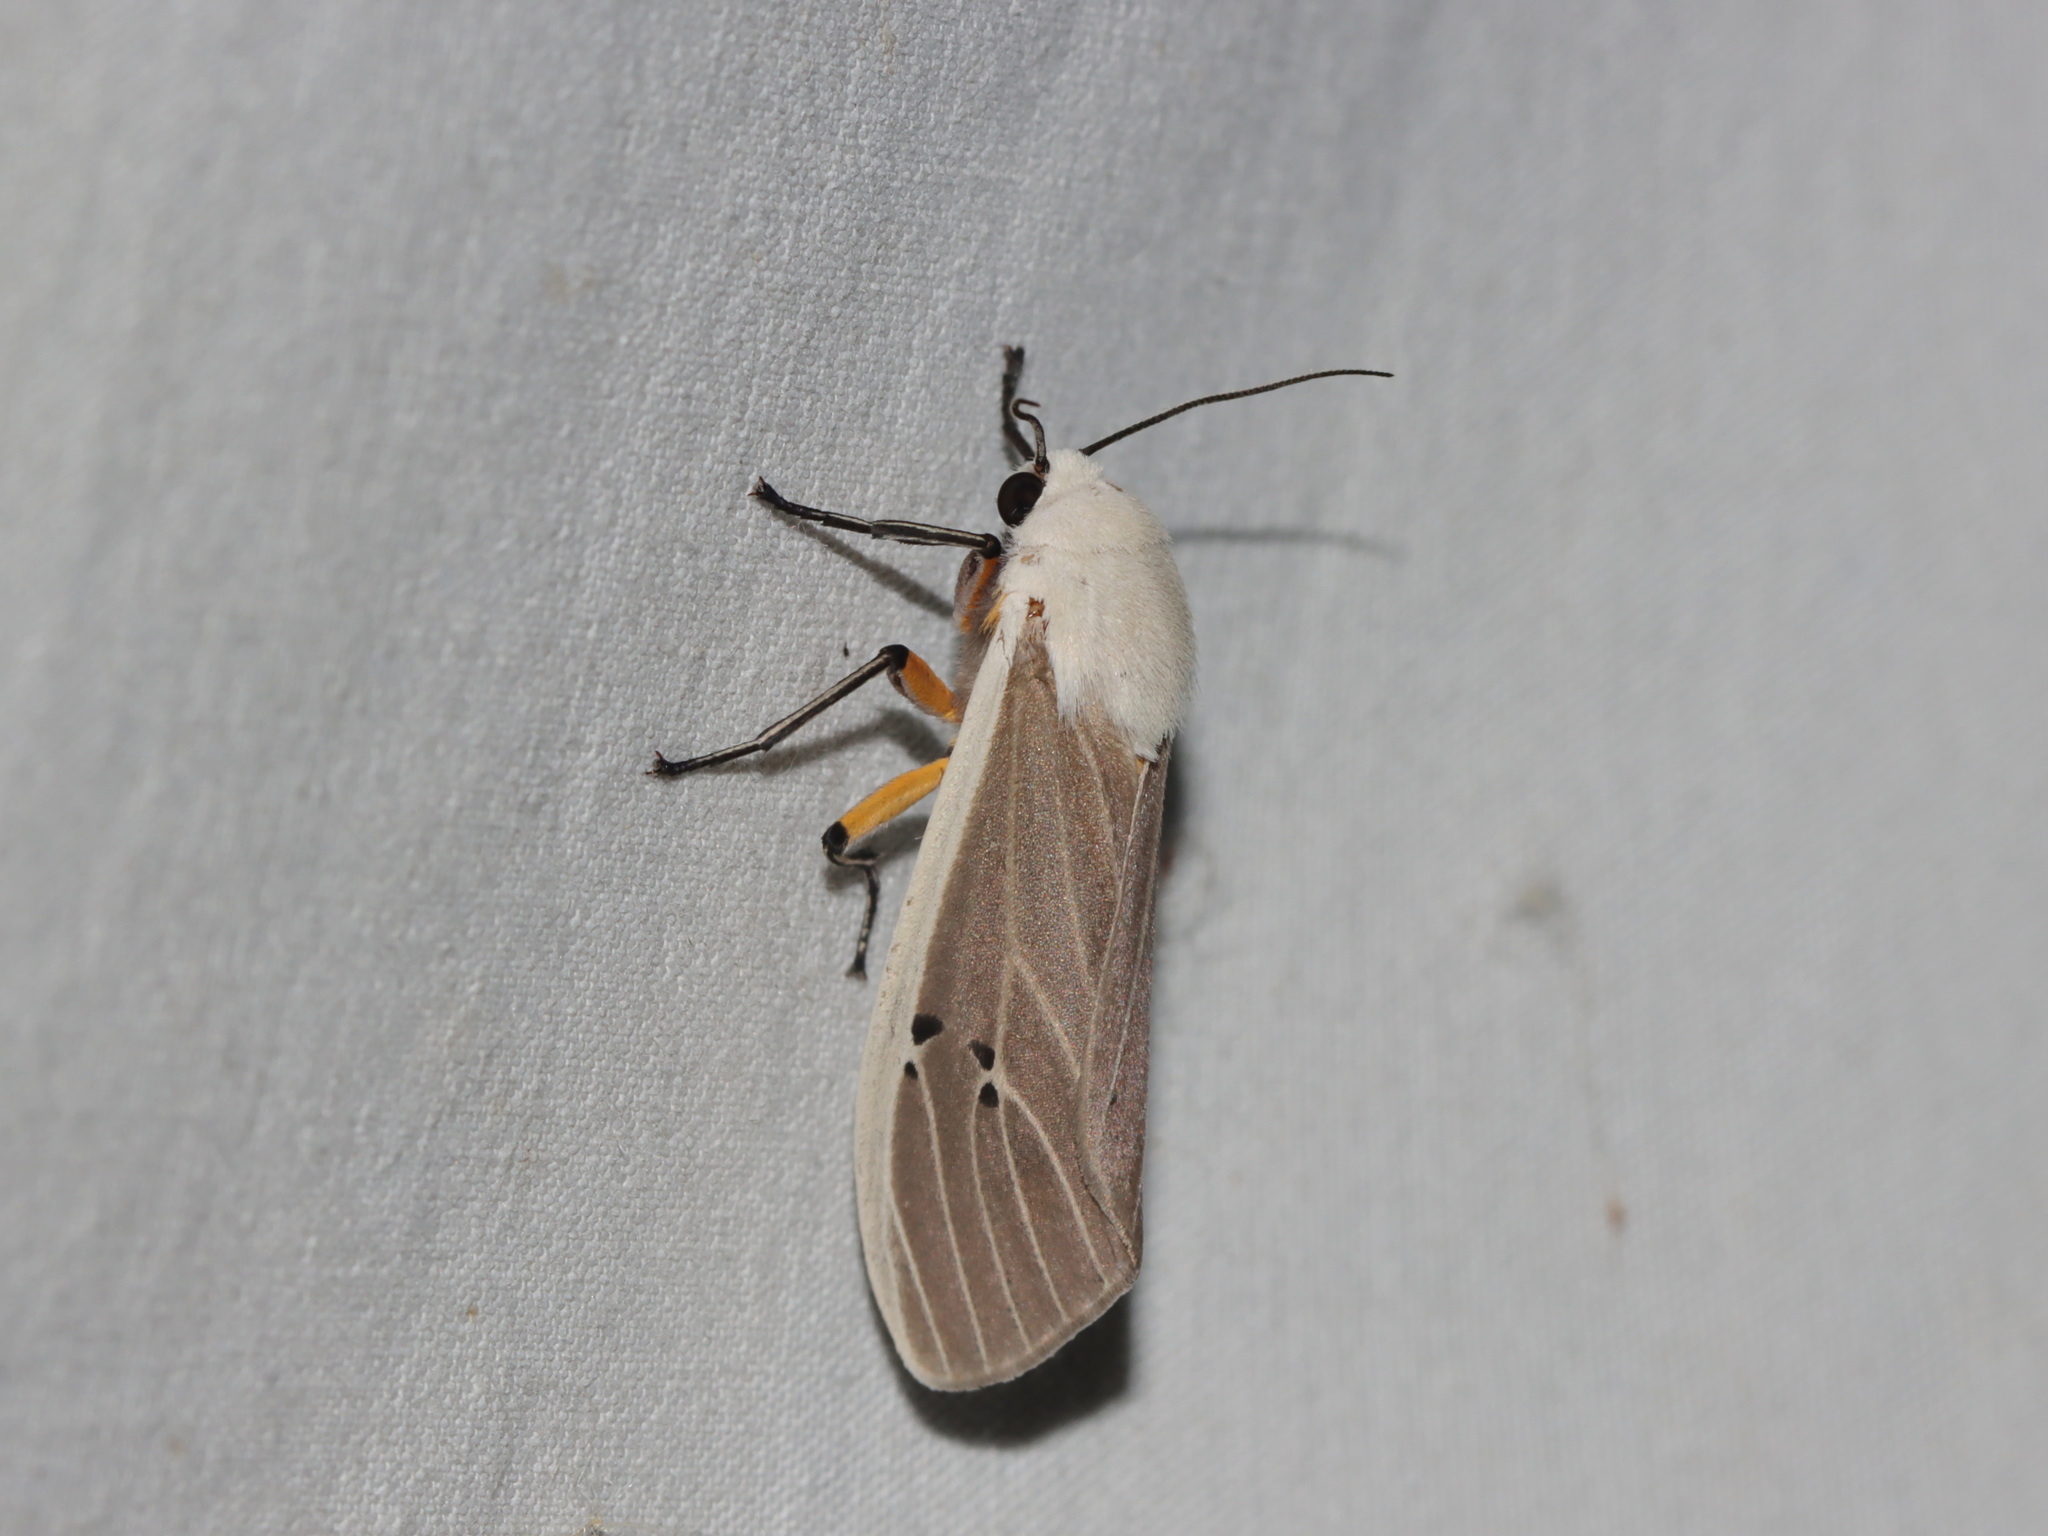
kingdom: Animalia
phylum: Arthropoda
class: Insecta
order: Lepidoptera
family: Erebidae
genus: Creatonotos
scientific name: Creatonotos transiens
